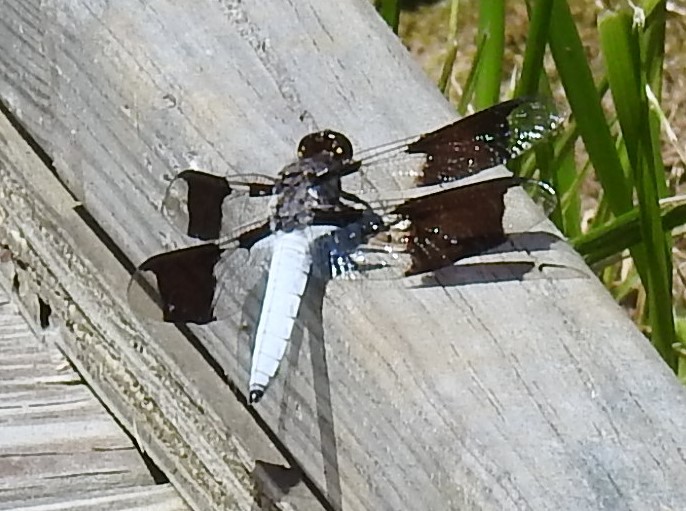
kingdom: Animalia
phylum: Arthropoda
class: Insecta
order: Odonata
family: Libellulidae
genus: Plathemis
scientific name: Plathemis lydia
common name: Common whitetail
